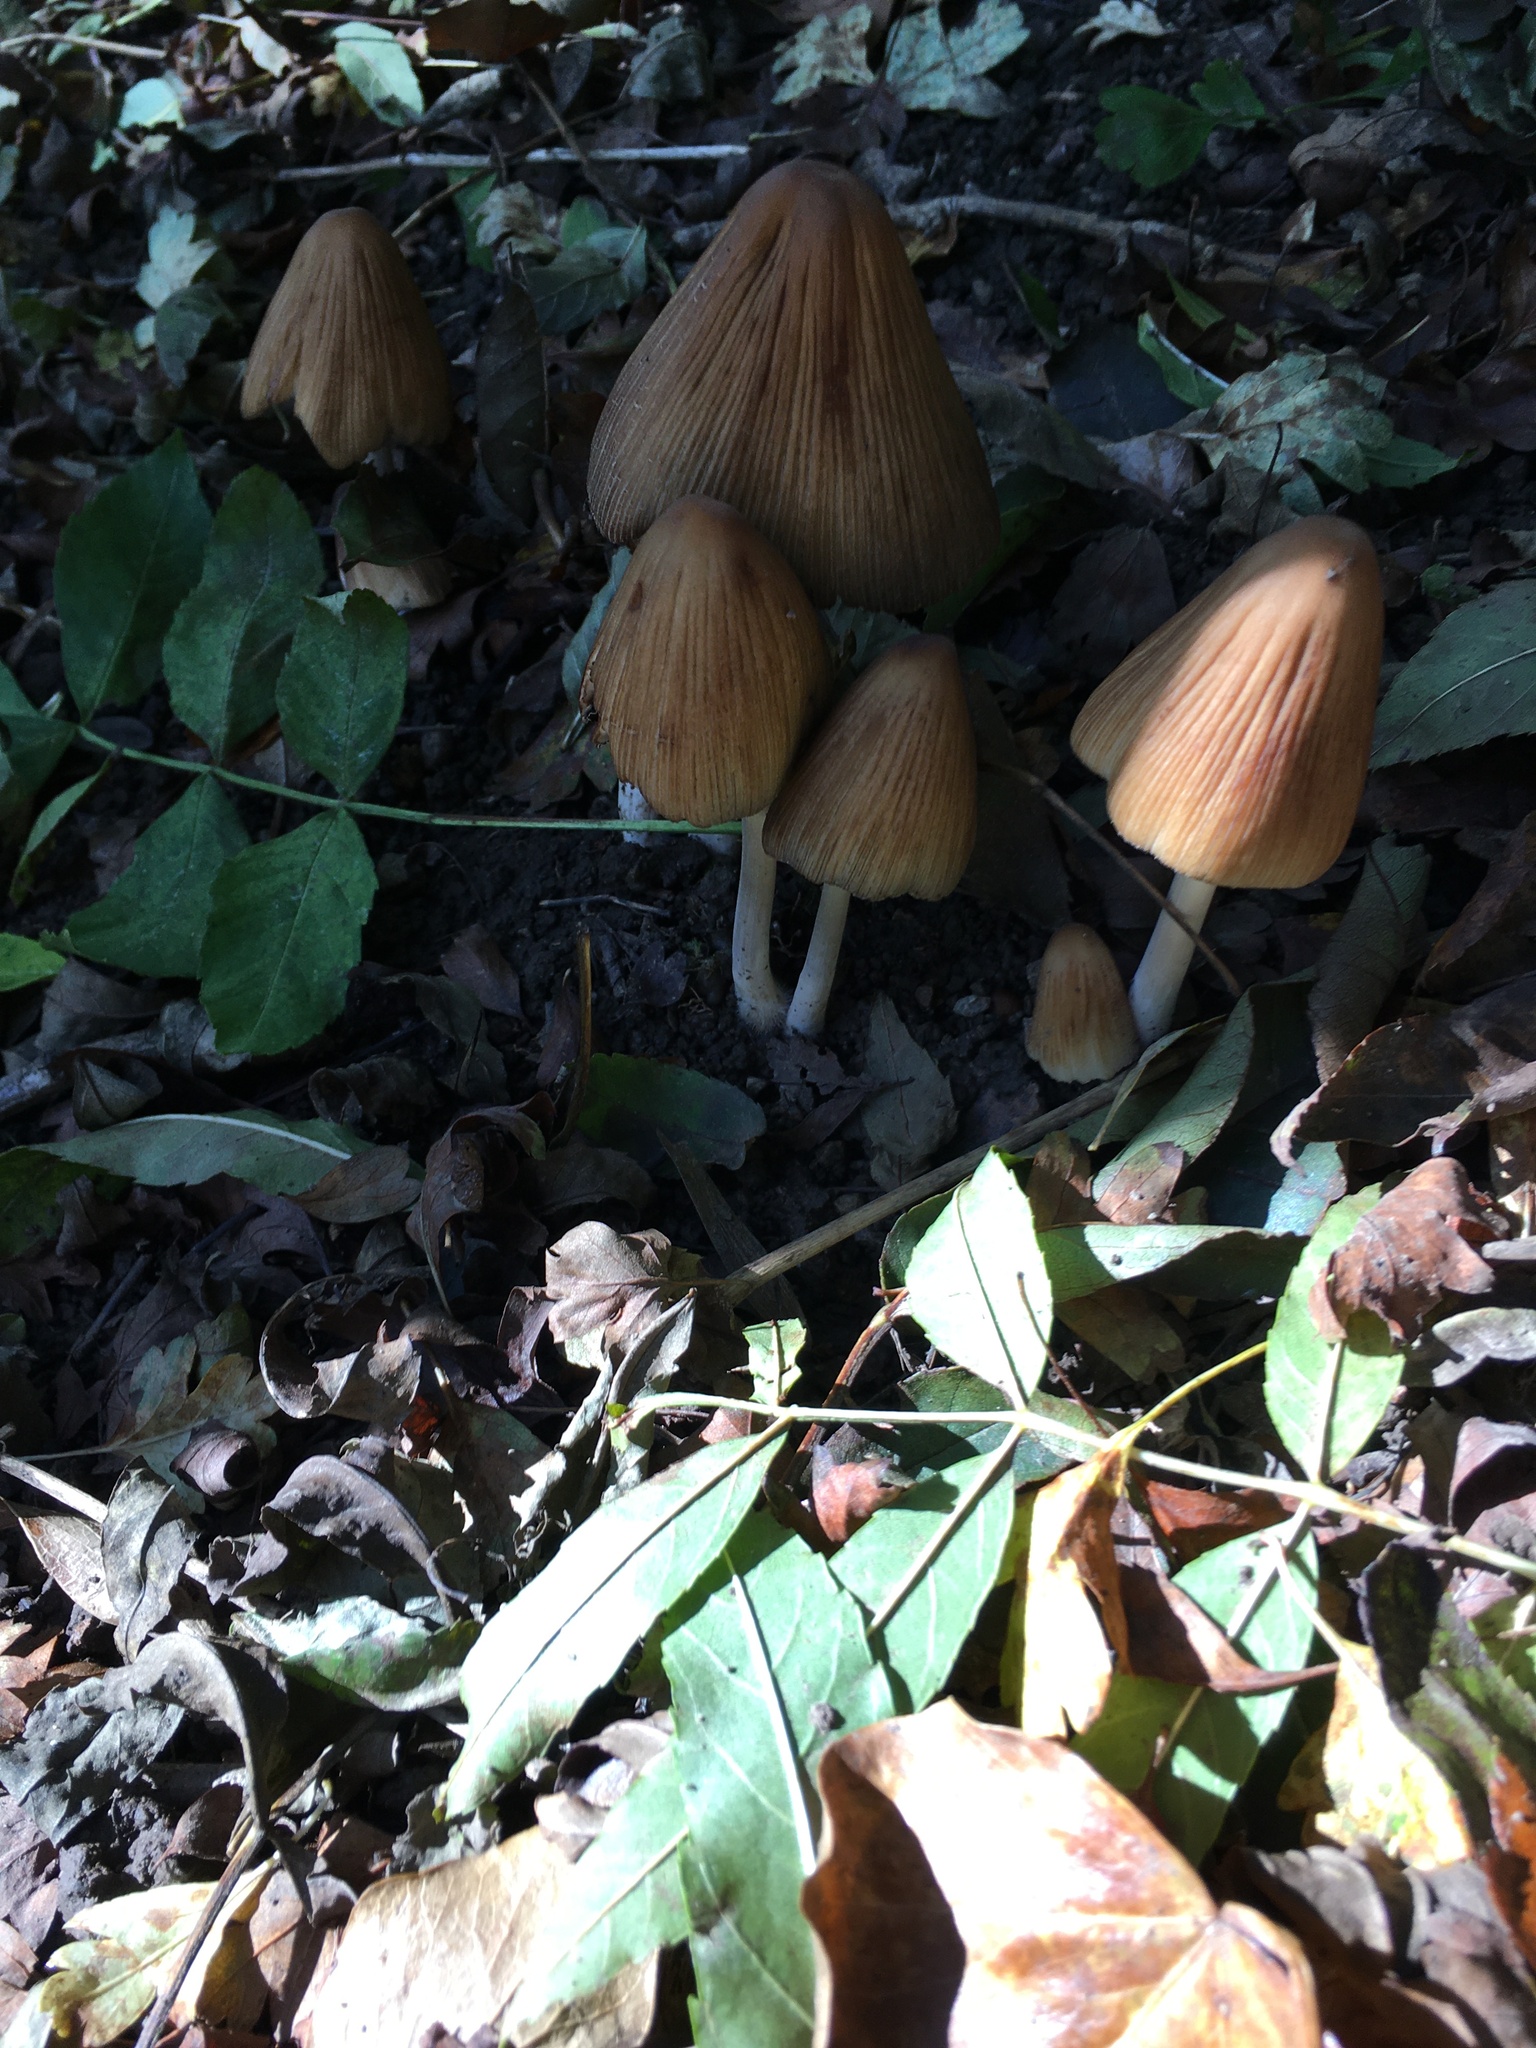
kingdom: Fungi
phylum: Basidiomycota
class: Agaricomycetes
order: Agaricales
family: Psathyrellaceae
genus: Coprinellus
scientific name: Coprinellus micaceus
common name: Glistening ink-cap
